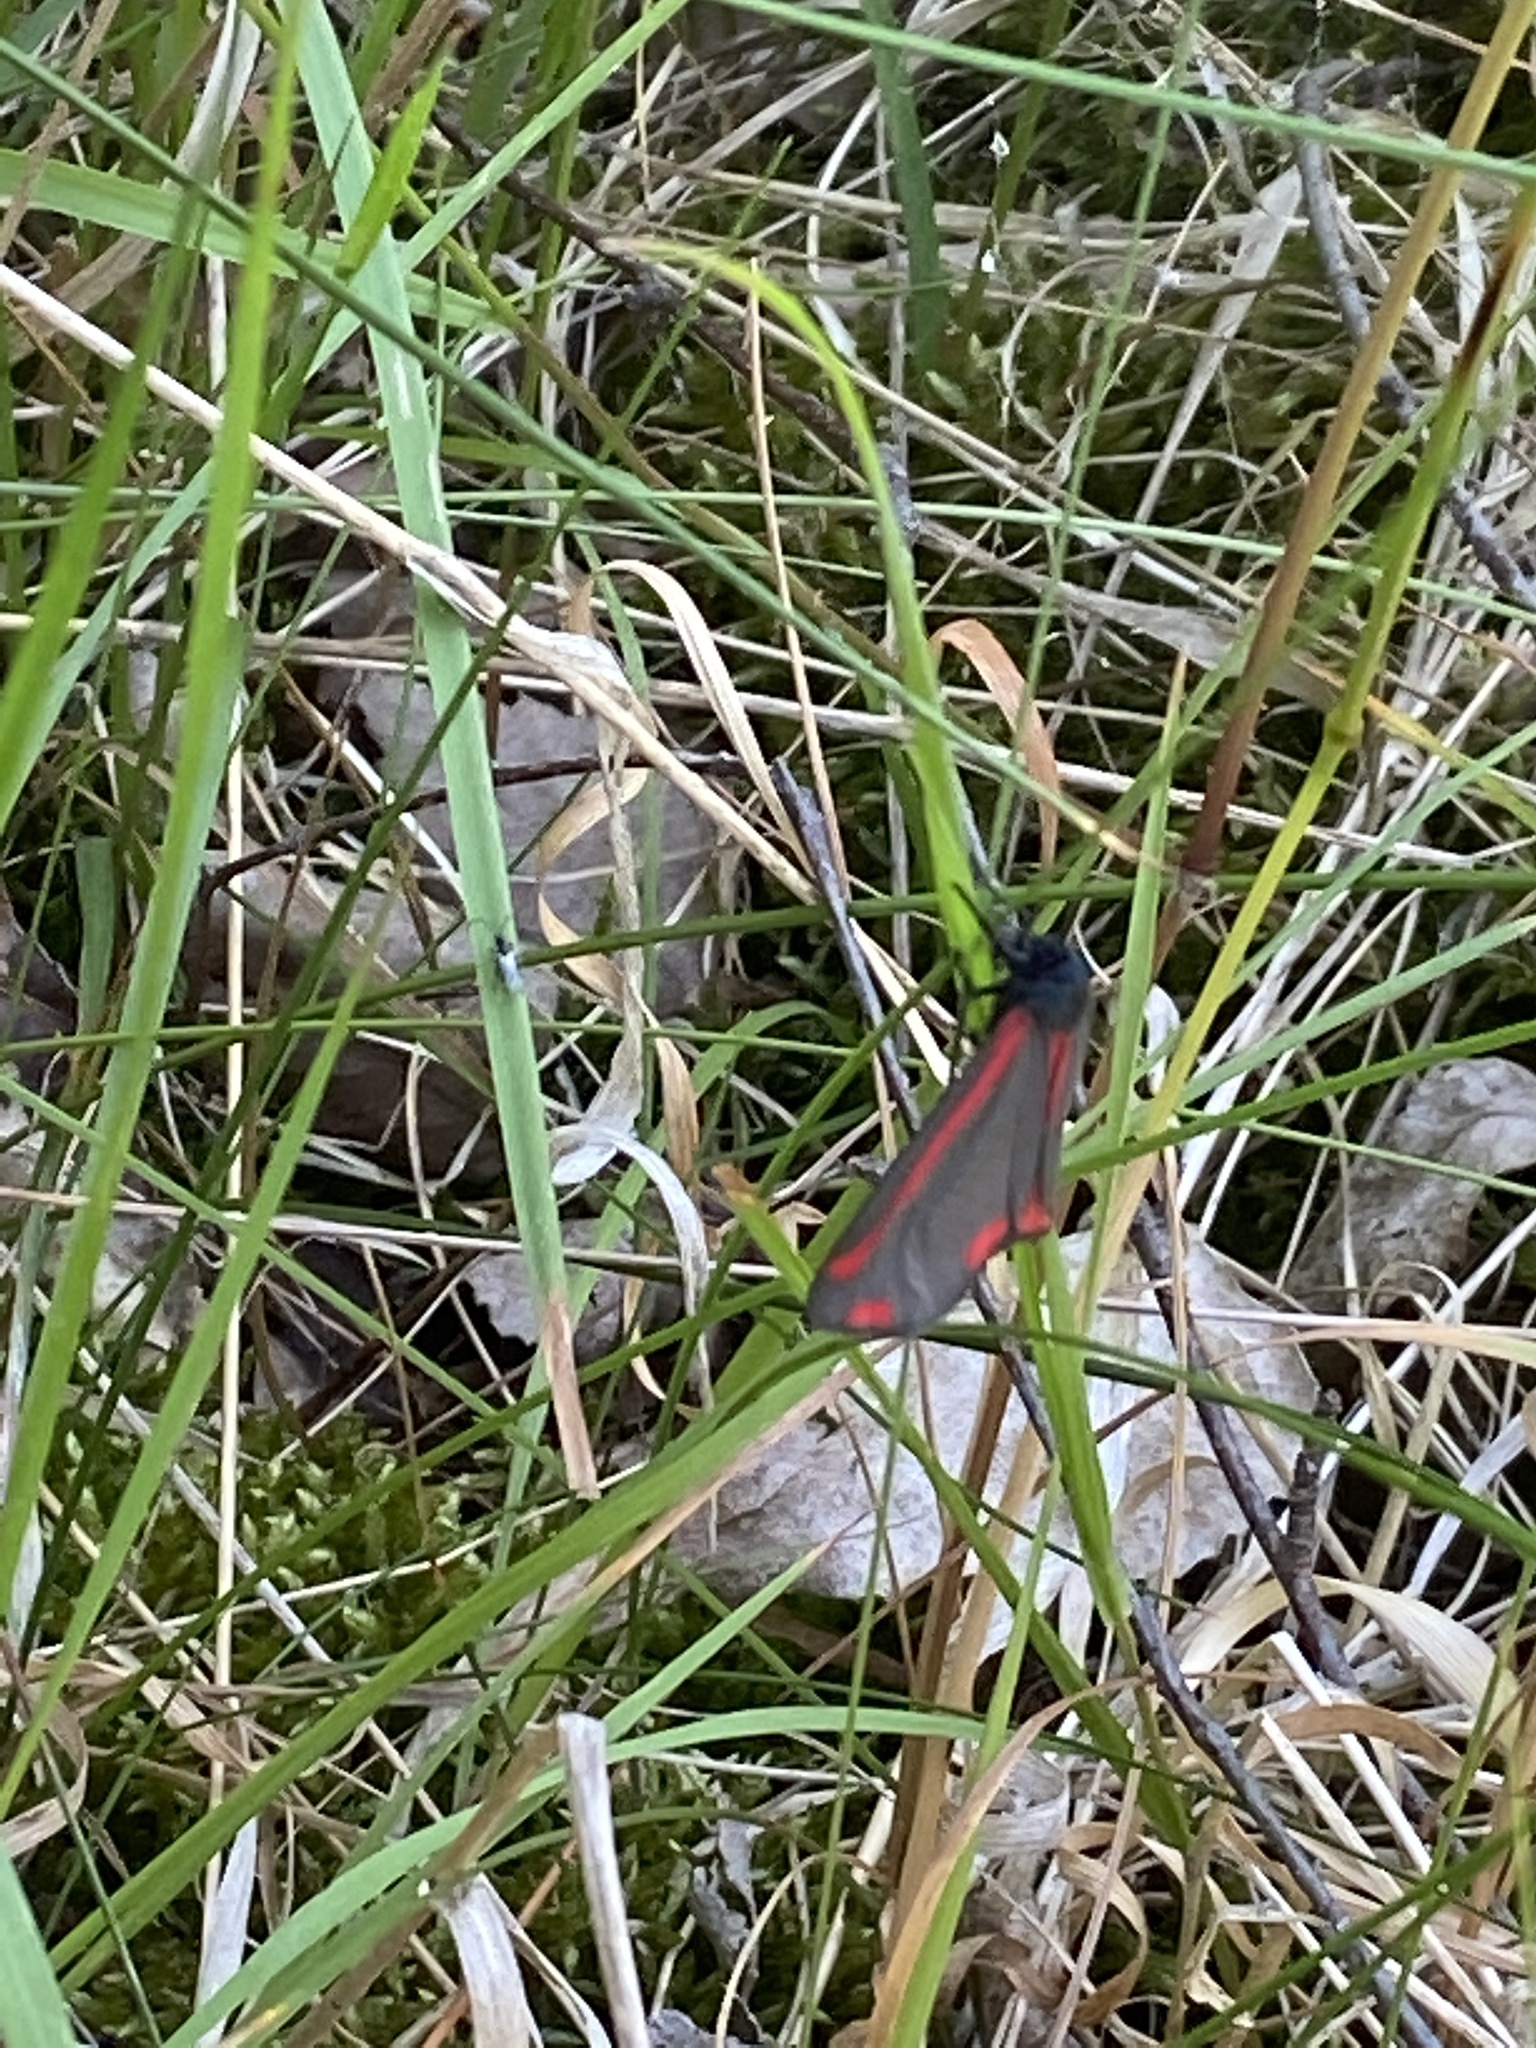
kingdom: Animalia
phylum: Arthropoda
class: Insecta
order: Lepidoptera
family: Erebidae
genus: Tyria
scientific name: Tyria jacobaeae
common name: Cinnabar
